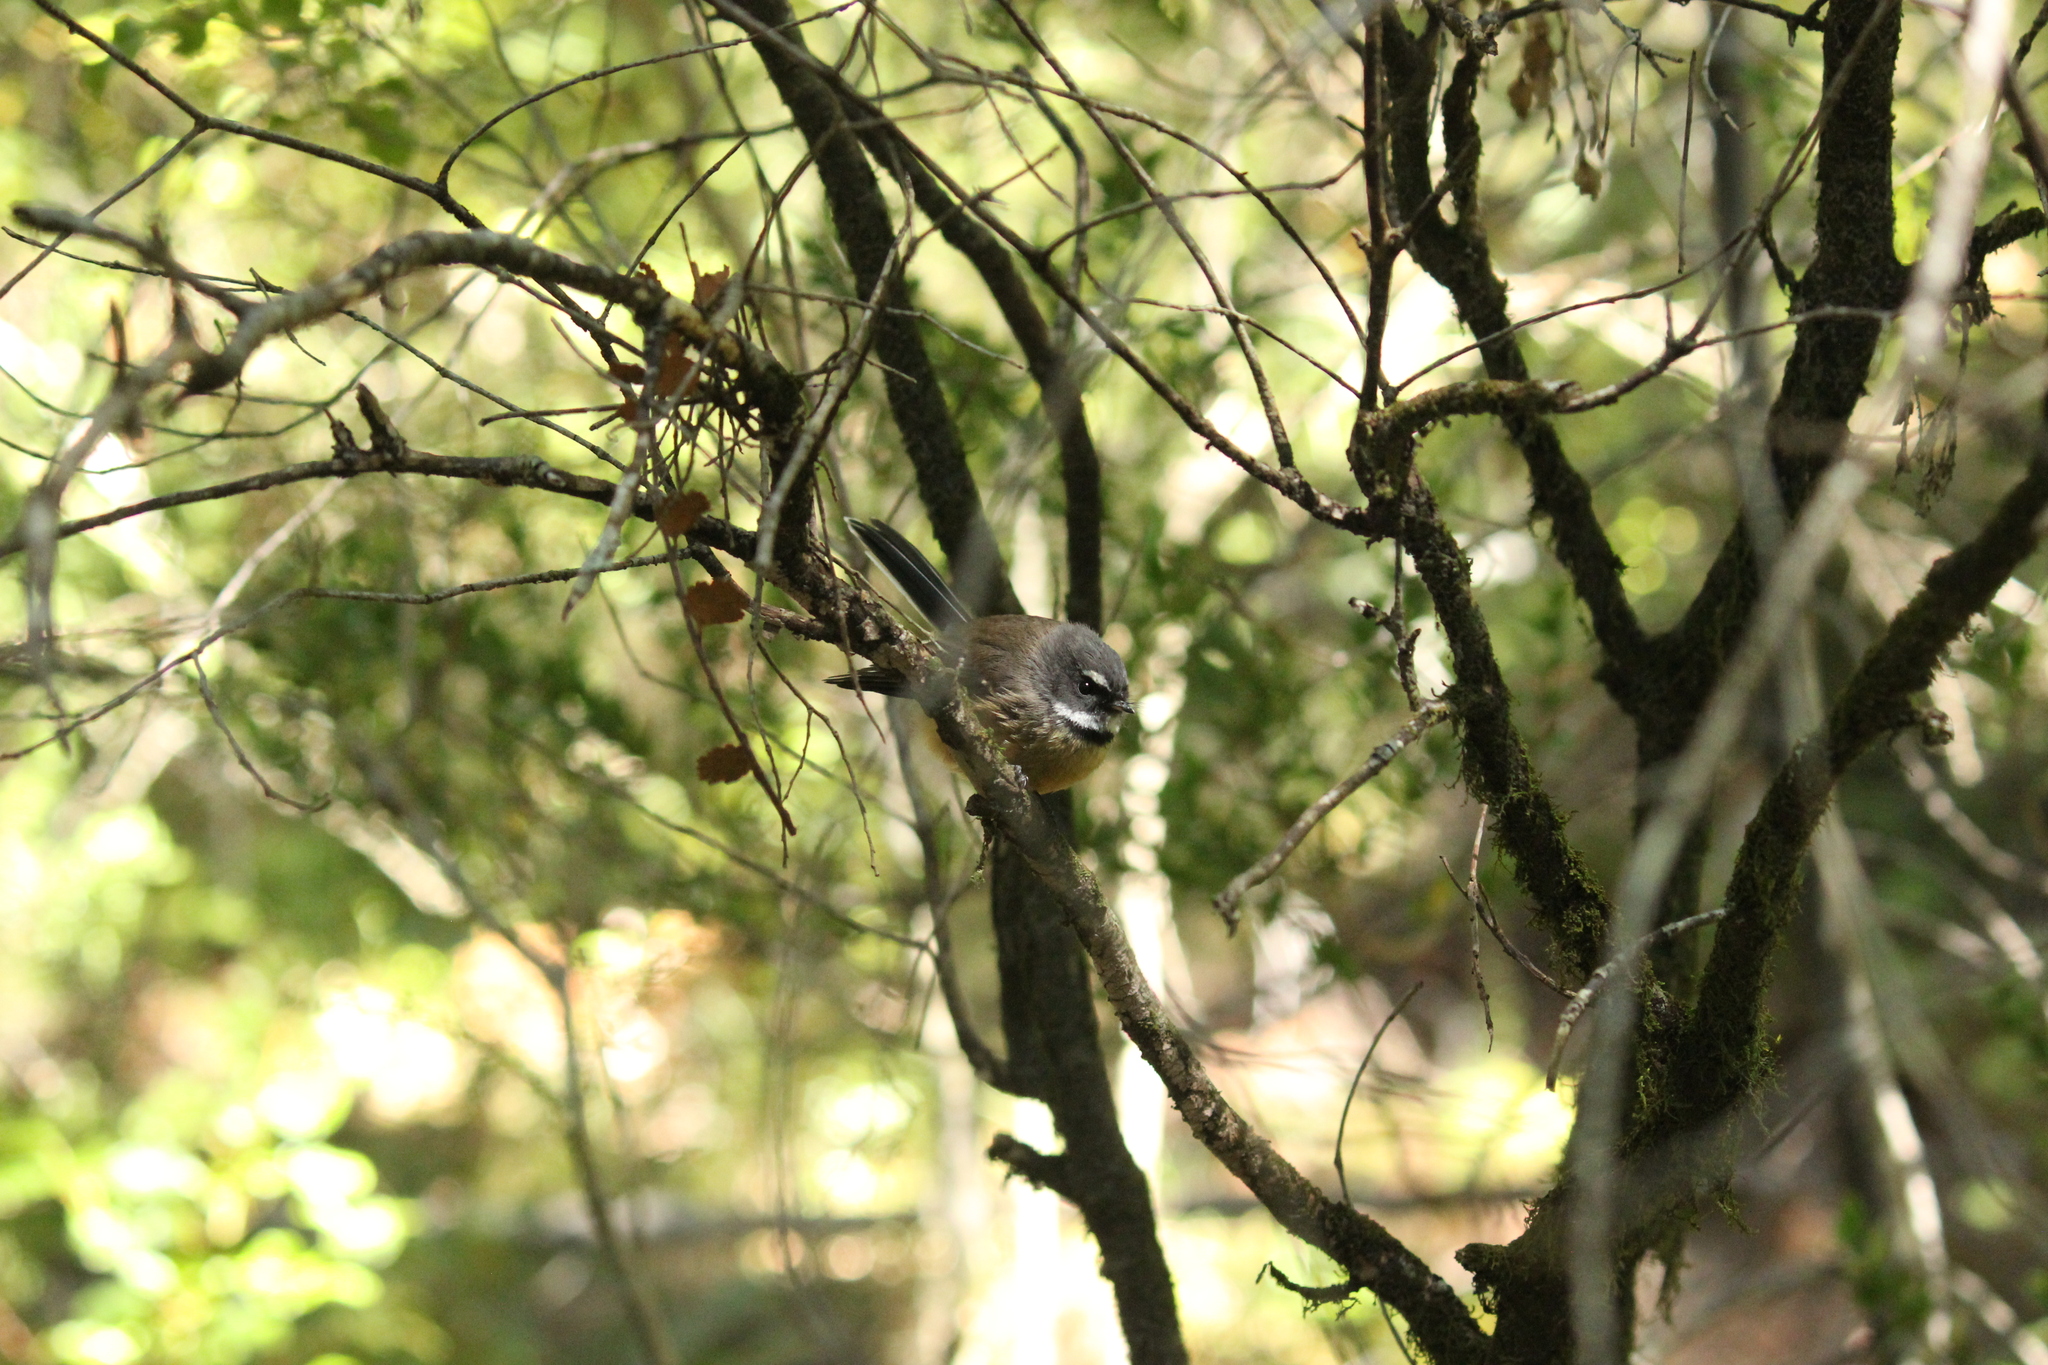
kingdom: Animalia
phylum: Chordata
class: Aves
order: Passeriformes
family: Rhipiduridae
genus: Rhipidura
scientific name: Rhipidura fuliginosa
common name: New zealand fantail
